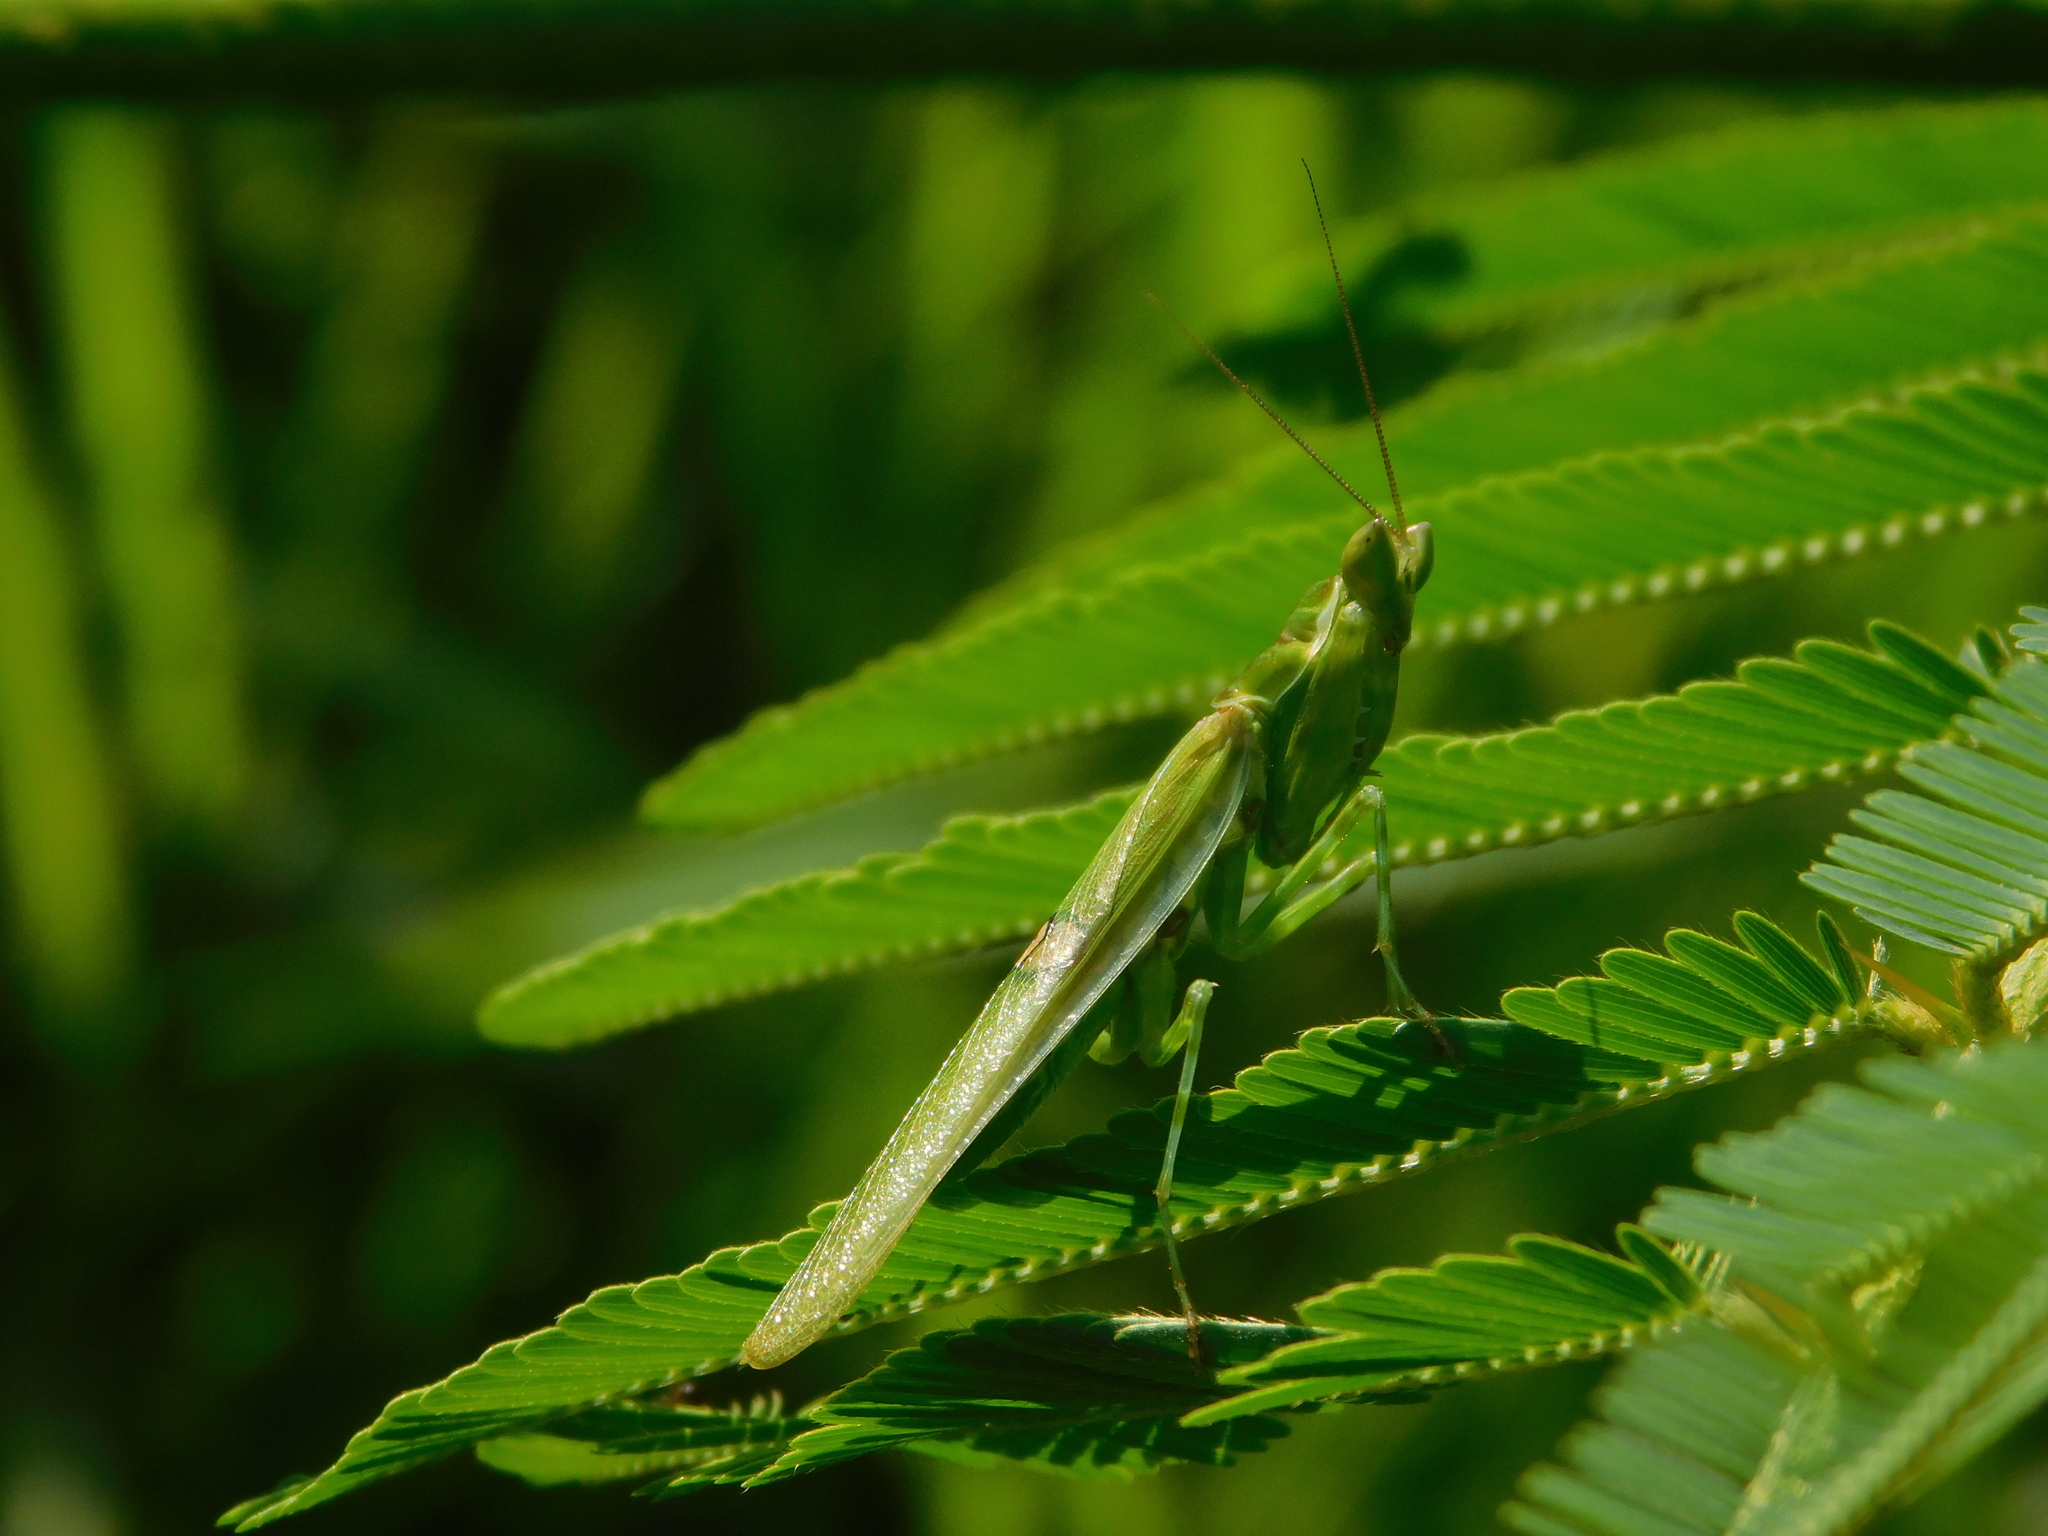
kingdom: Animalia
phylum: Arthropoda
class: Insecta
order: Mantodea
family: Hymenopodidae
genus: Creobroter
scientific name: Creobroter gemmatus
